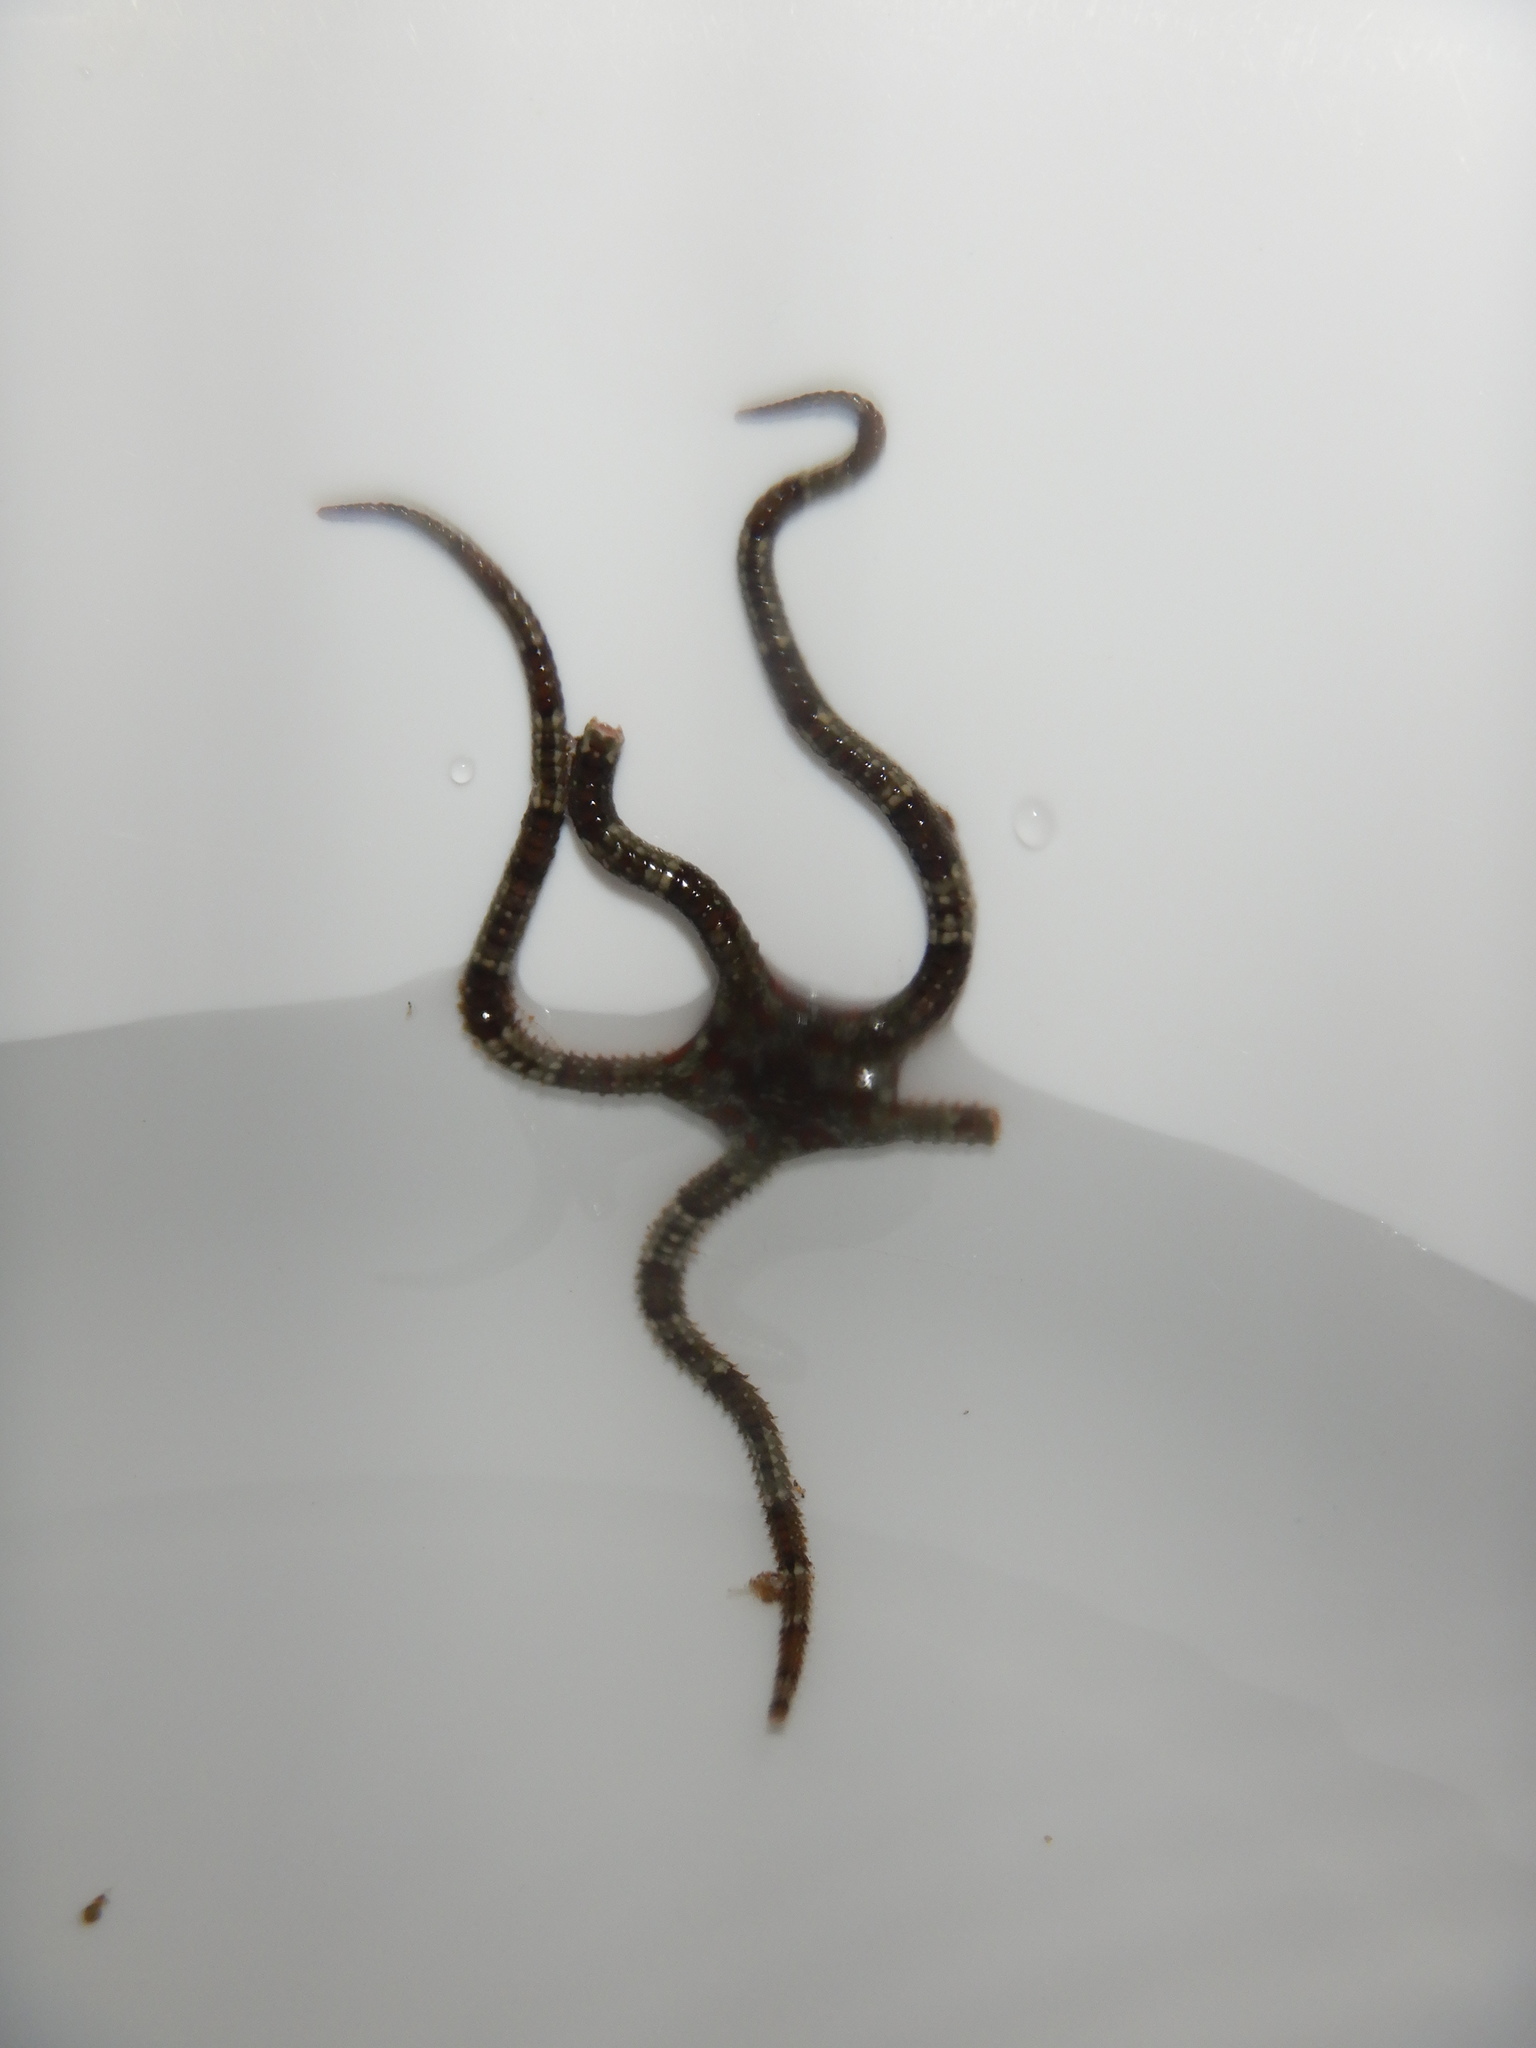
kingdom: Animalia
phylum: Echinodermata
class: Ophiuroidea
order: Ophiacanthida
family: Ophiodermatidae
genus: Ophioderma
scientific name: Ophioderma longicaudum
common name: Smooth brittle-star
